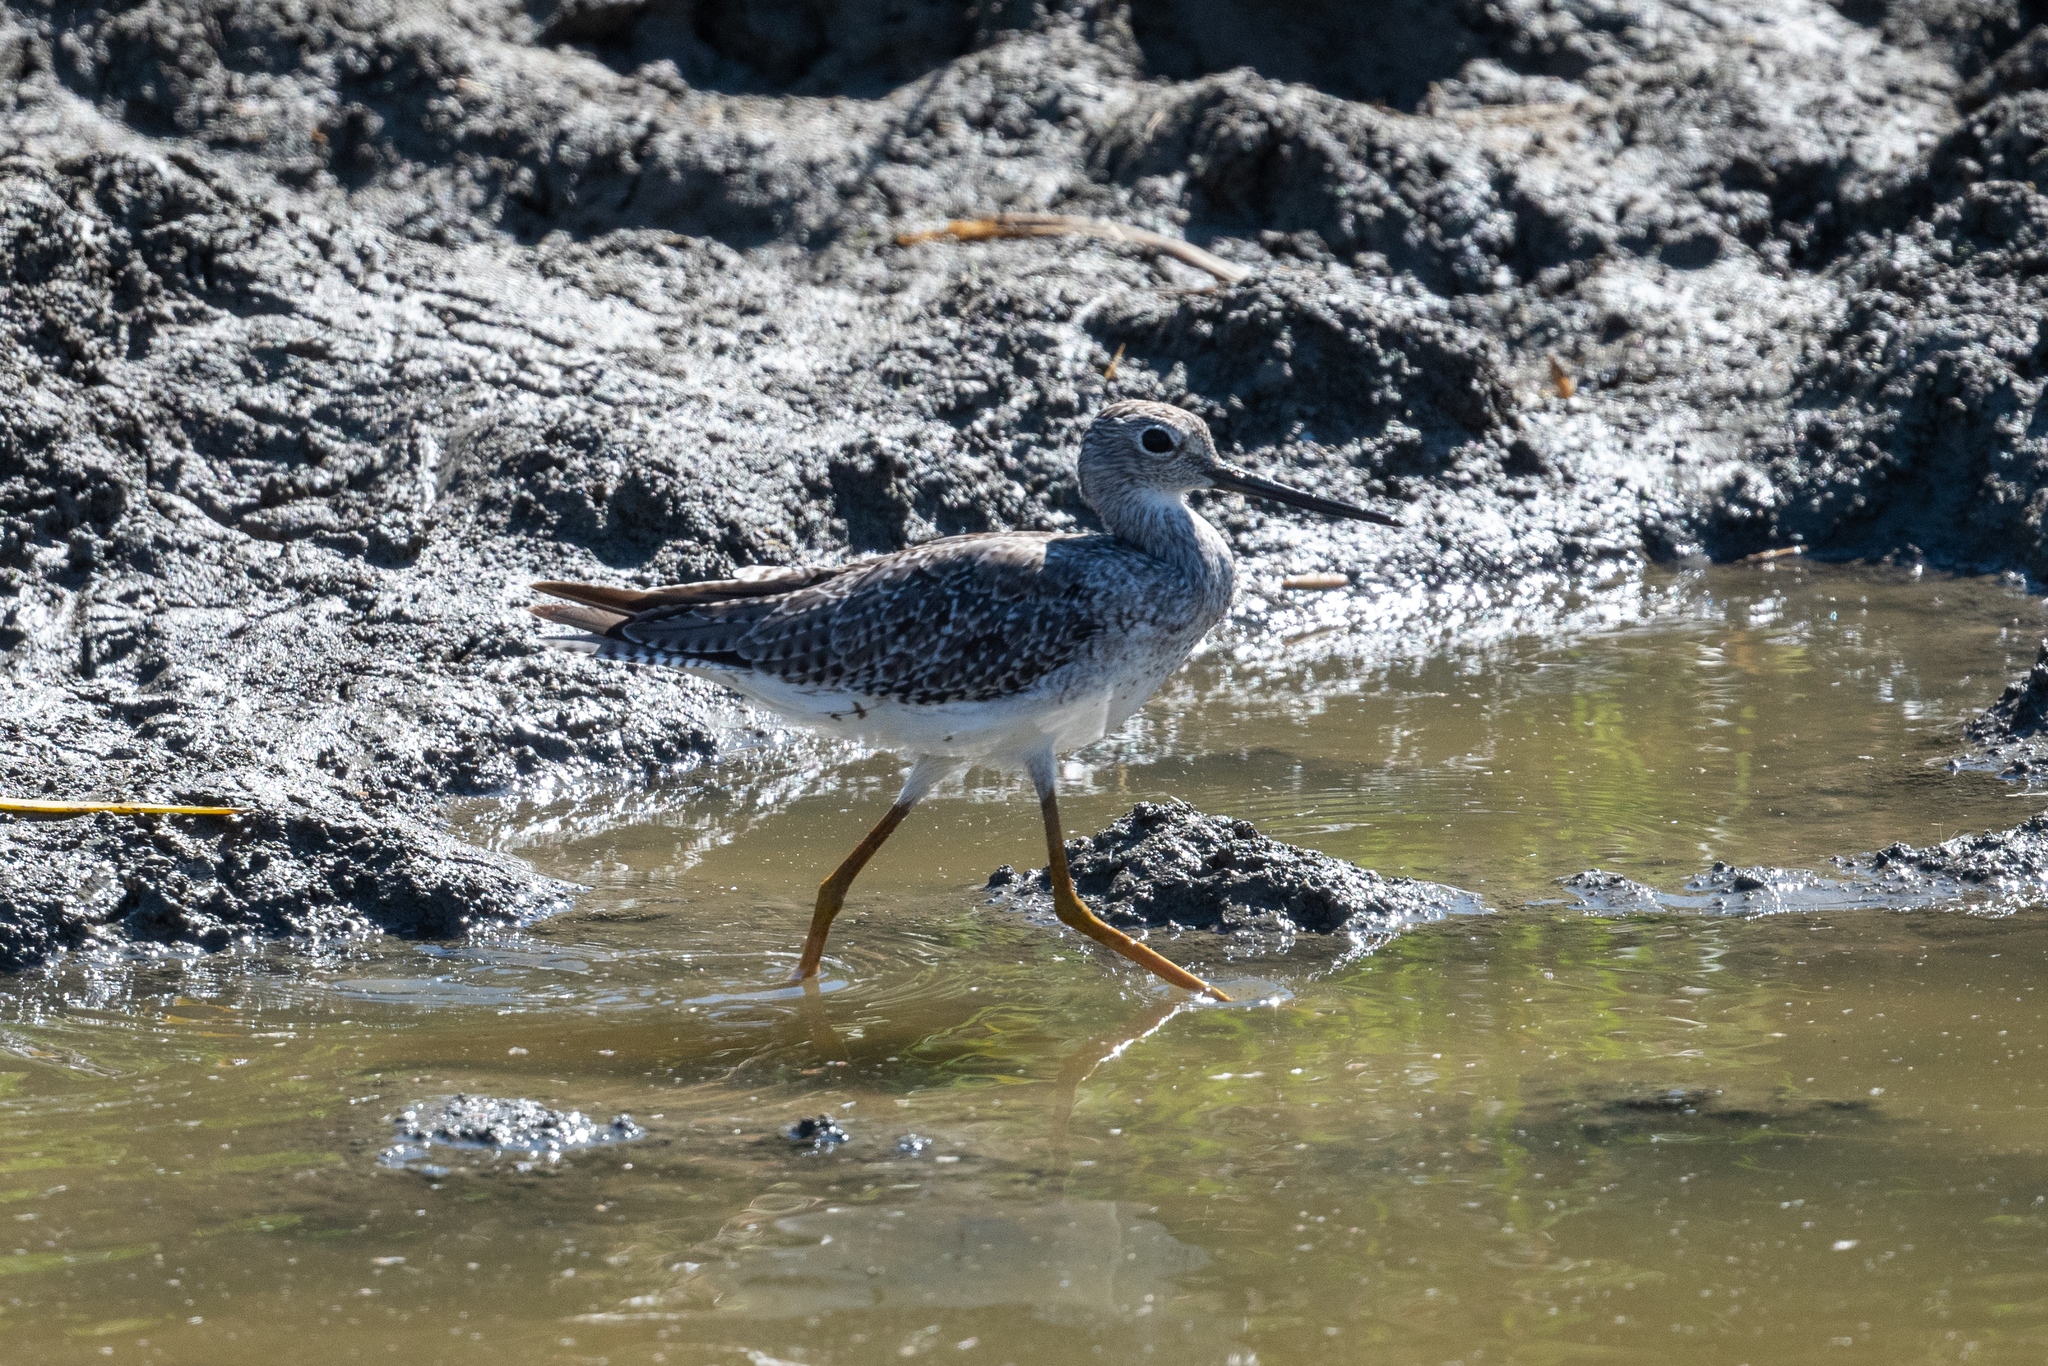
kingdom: Animalia
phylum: Chordata
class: Aves
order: Charadriiformes
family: Scolopacidae
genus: Tringa
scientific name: Tringa melanoleuca
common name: Greater yellowlegs
